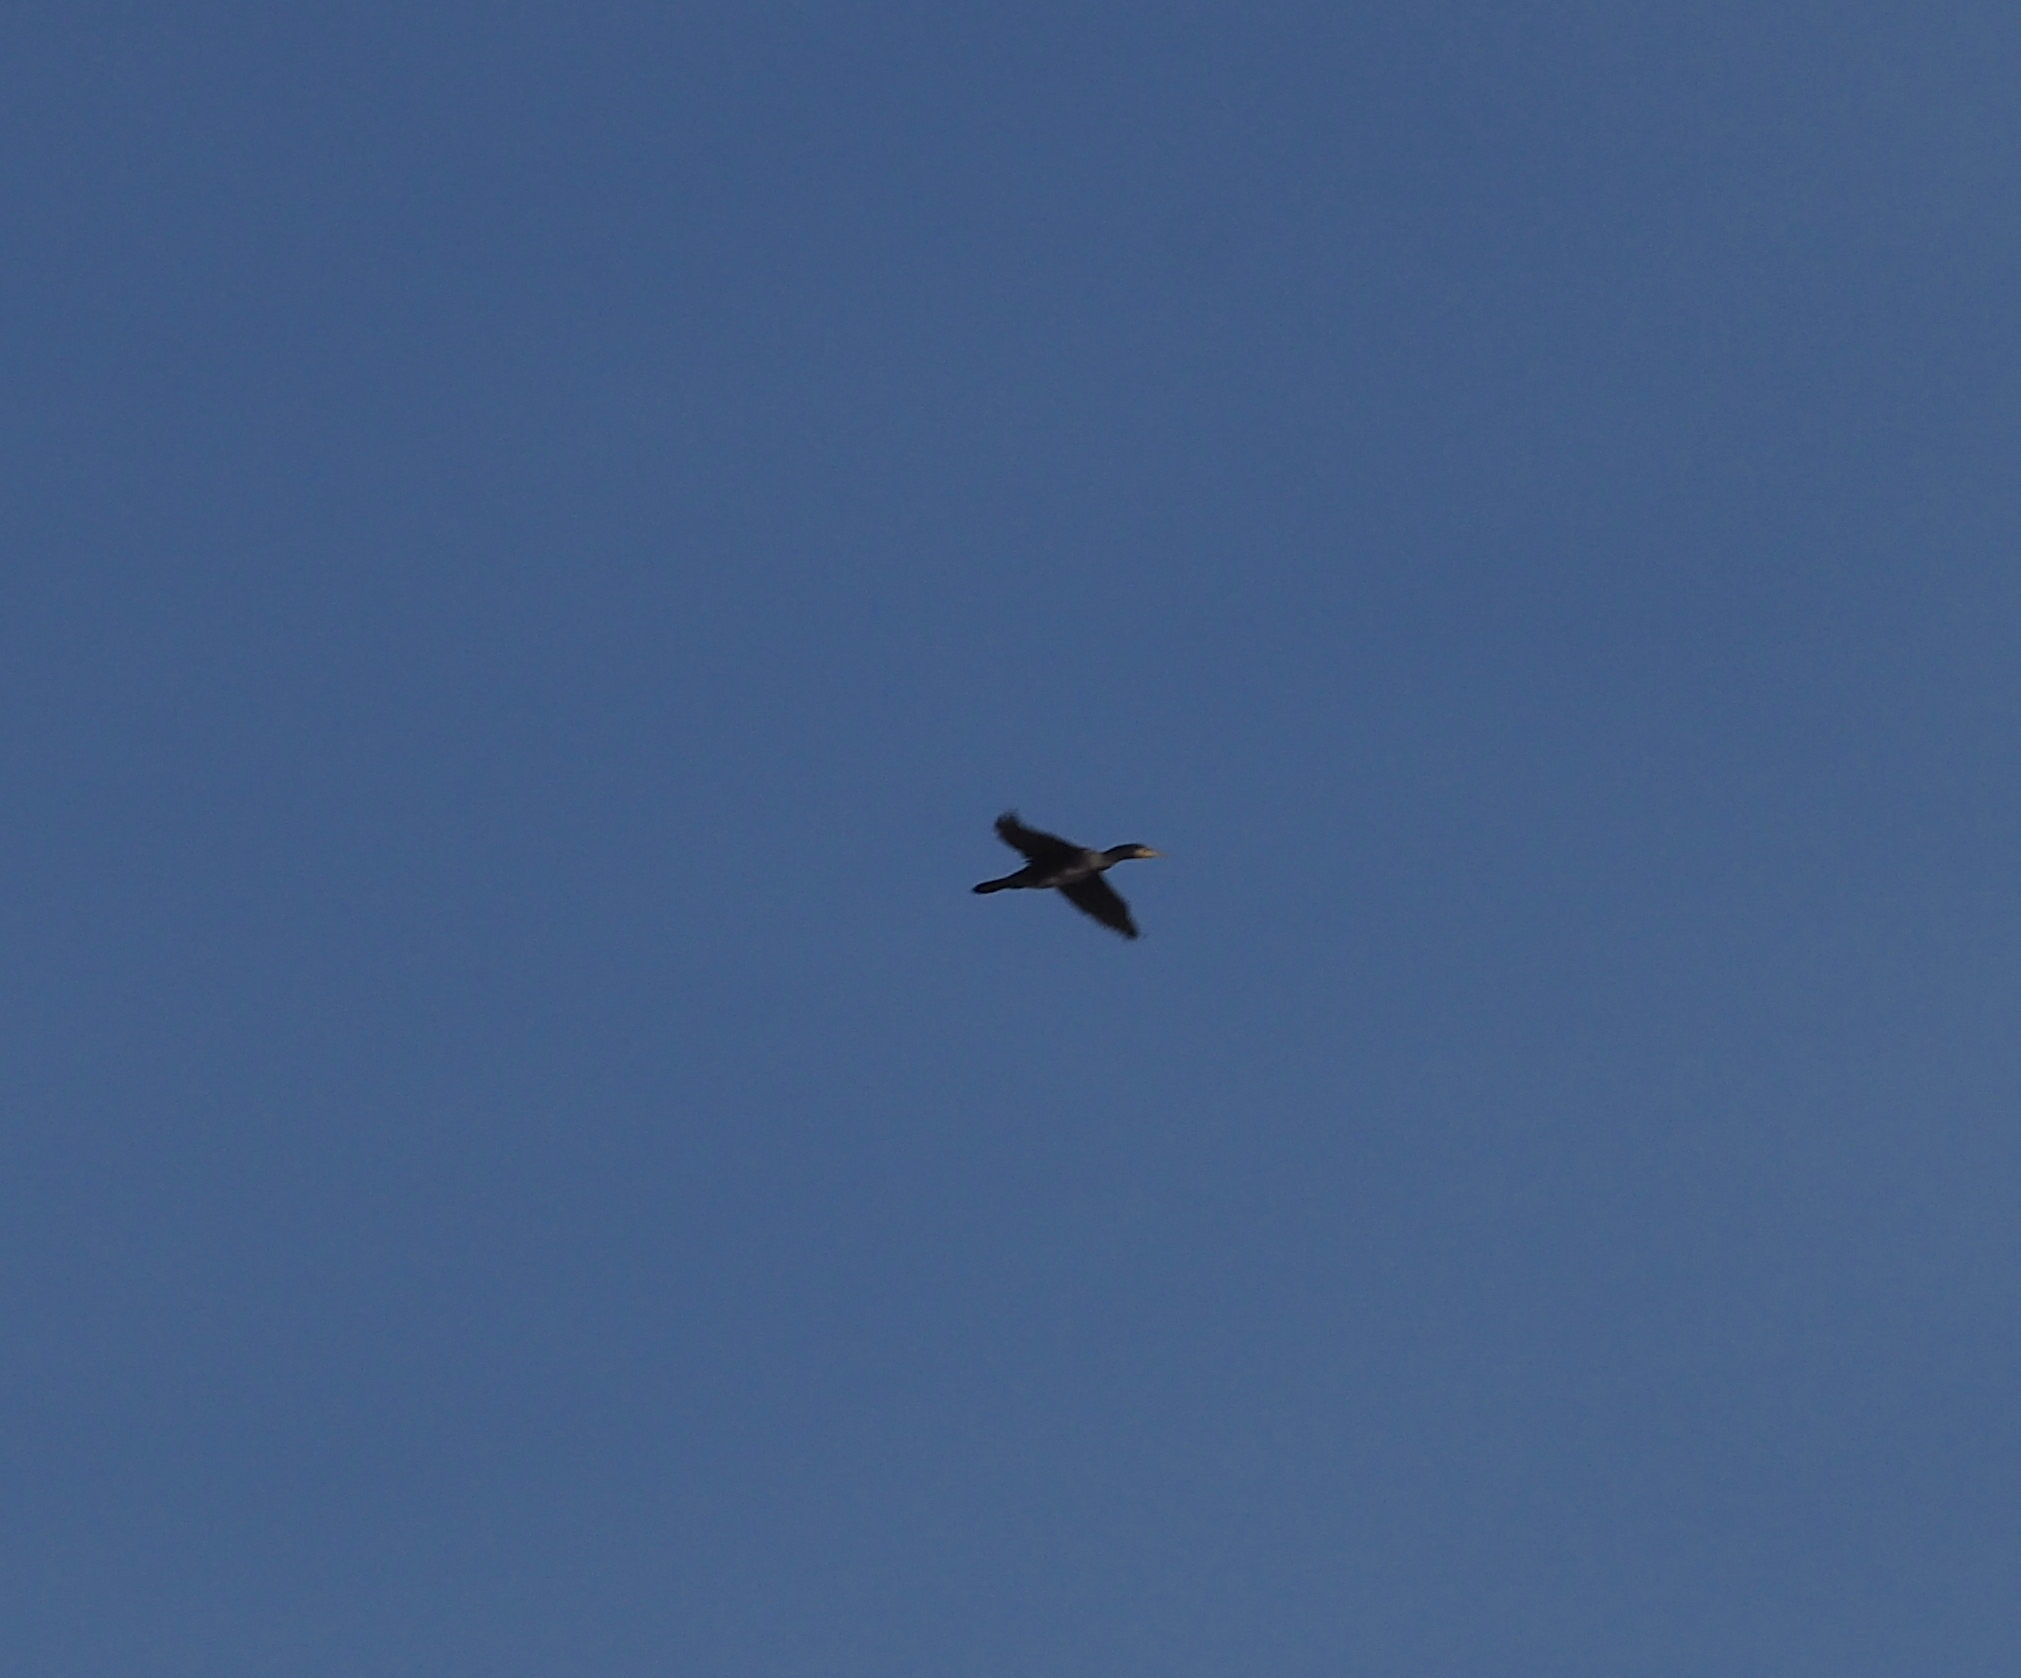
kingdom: Animalia
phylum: Chordata
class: Aves
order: Suliformes
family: Phalacrocoracidae
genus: Phalacrocorax
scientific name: Phalacrocorax carbo
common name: Great cormorant
